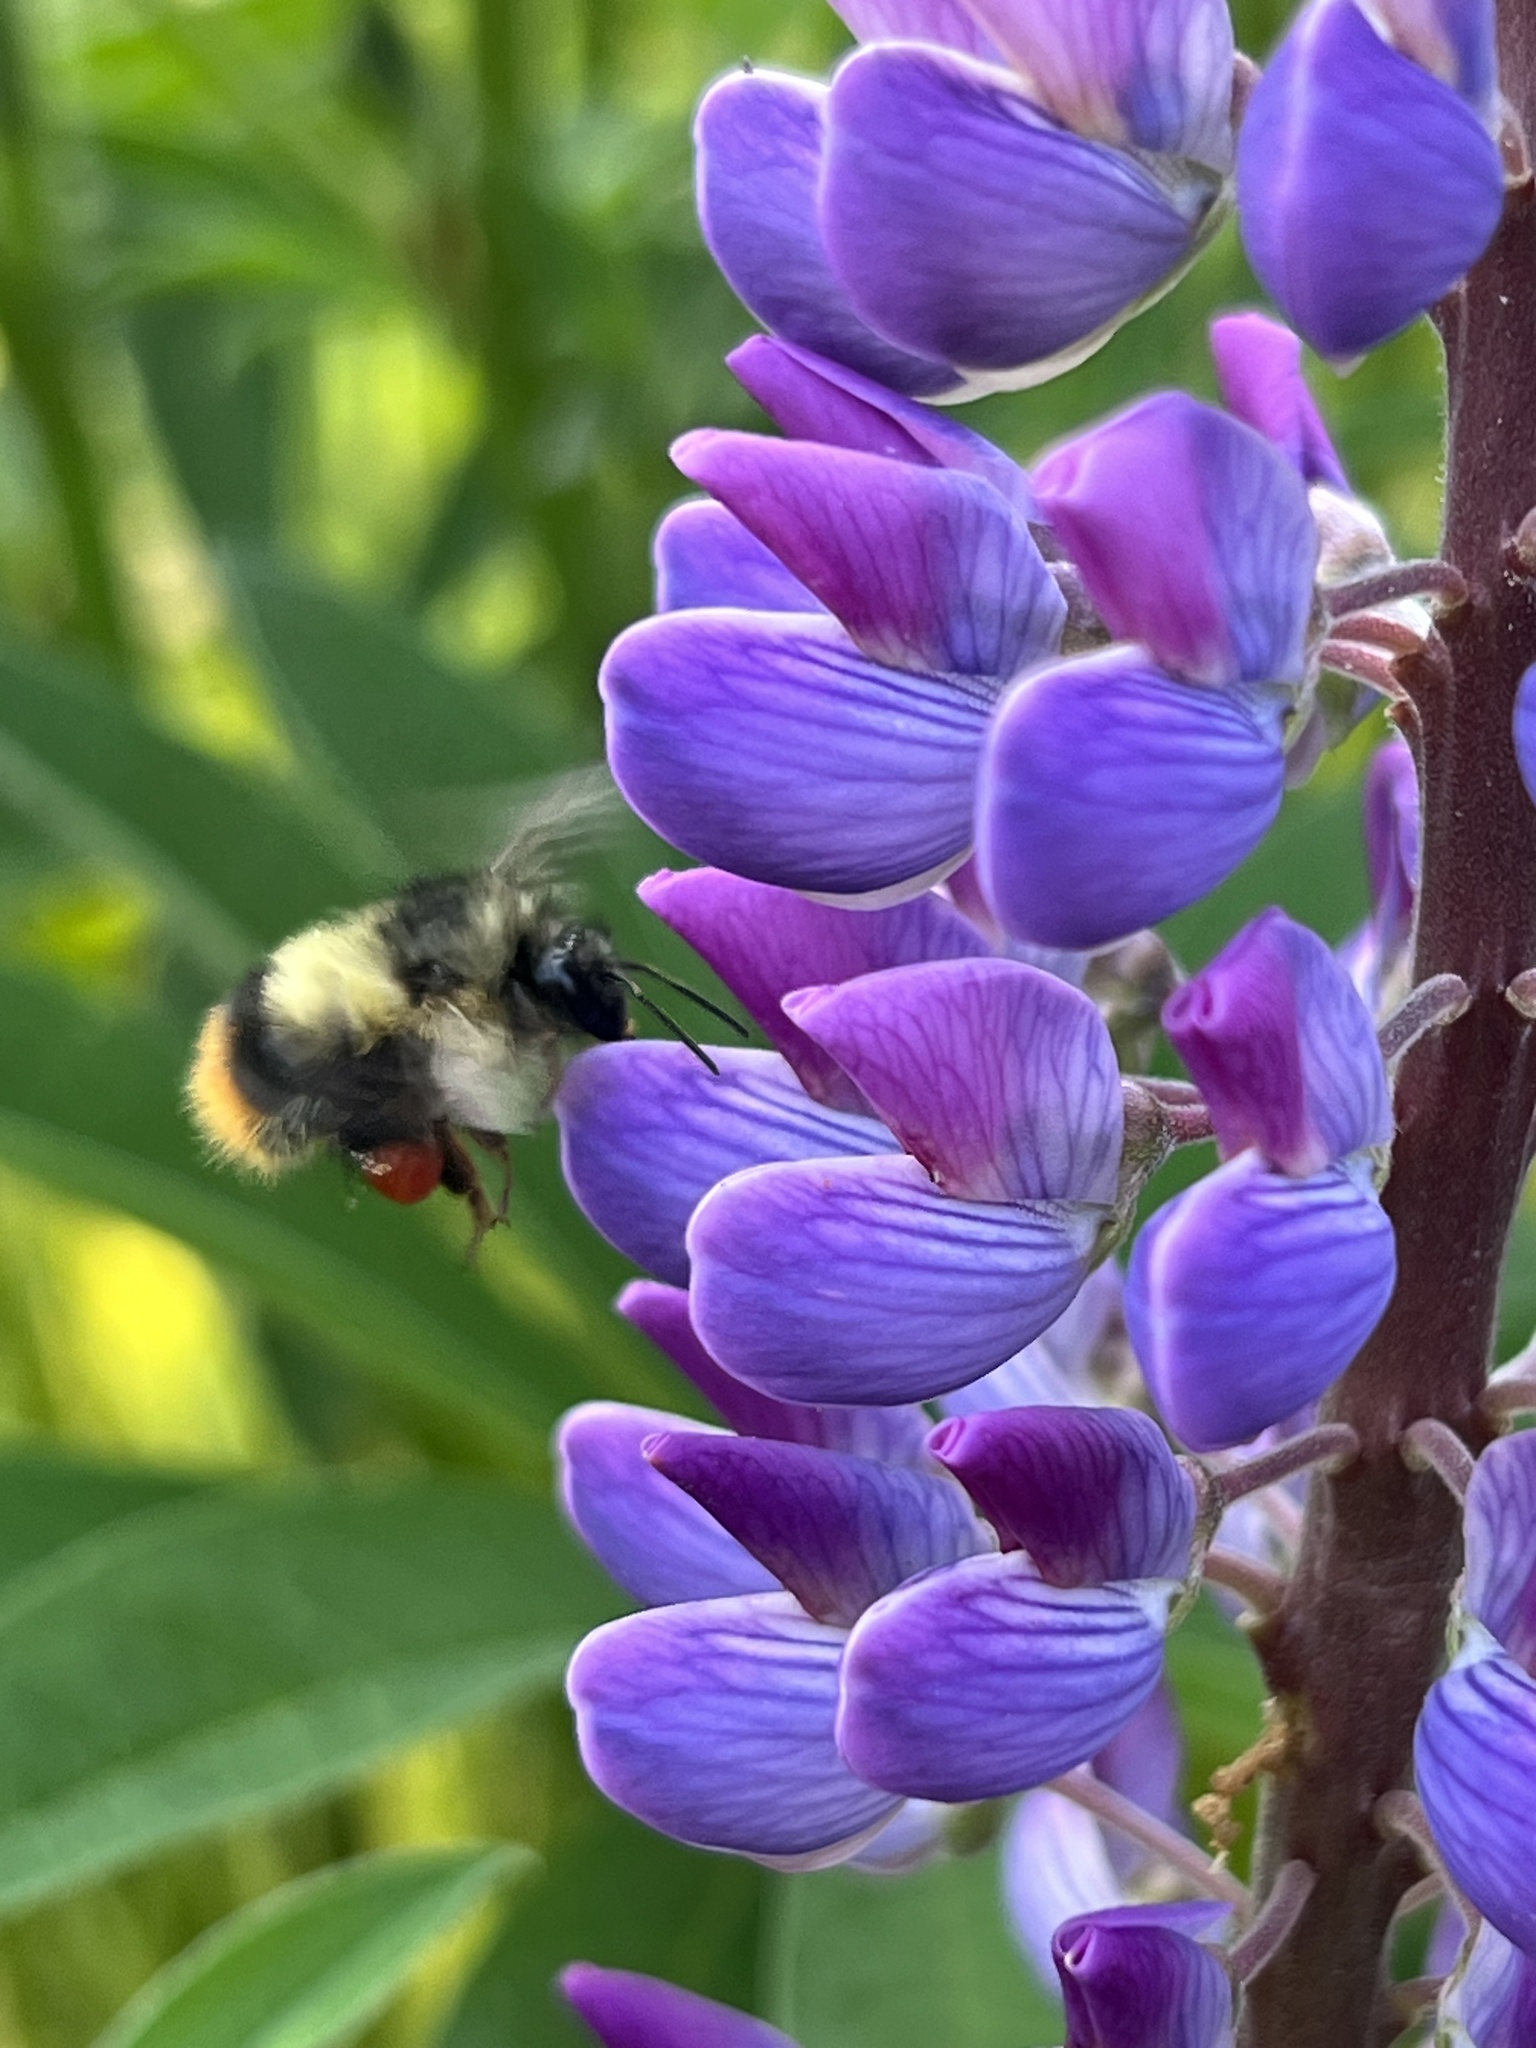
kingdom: Animalia
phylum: Arthropoda
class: Insecta
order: Hymenoptera
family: Apidae
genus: Bombus
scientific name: Bombus mixtus
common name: Fuzzy-horned bumble bee
